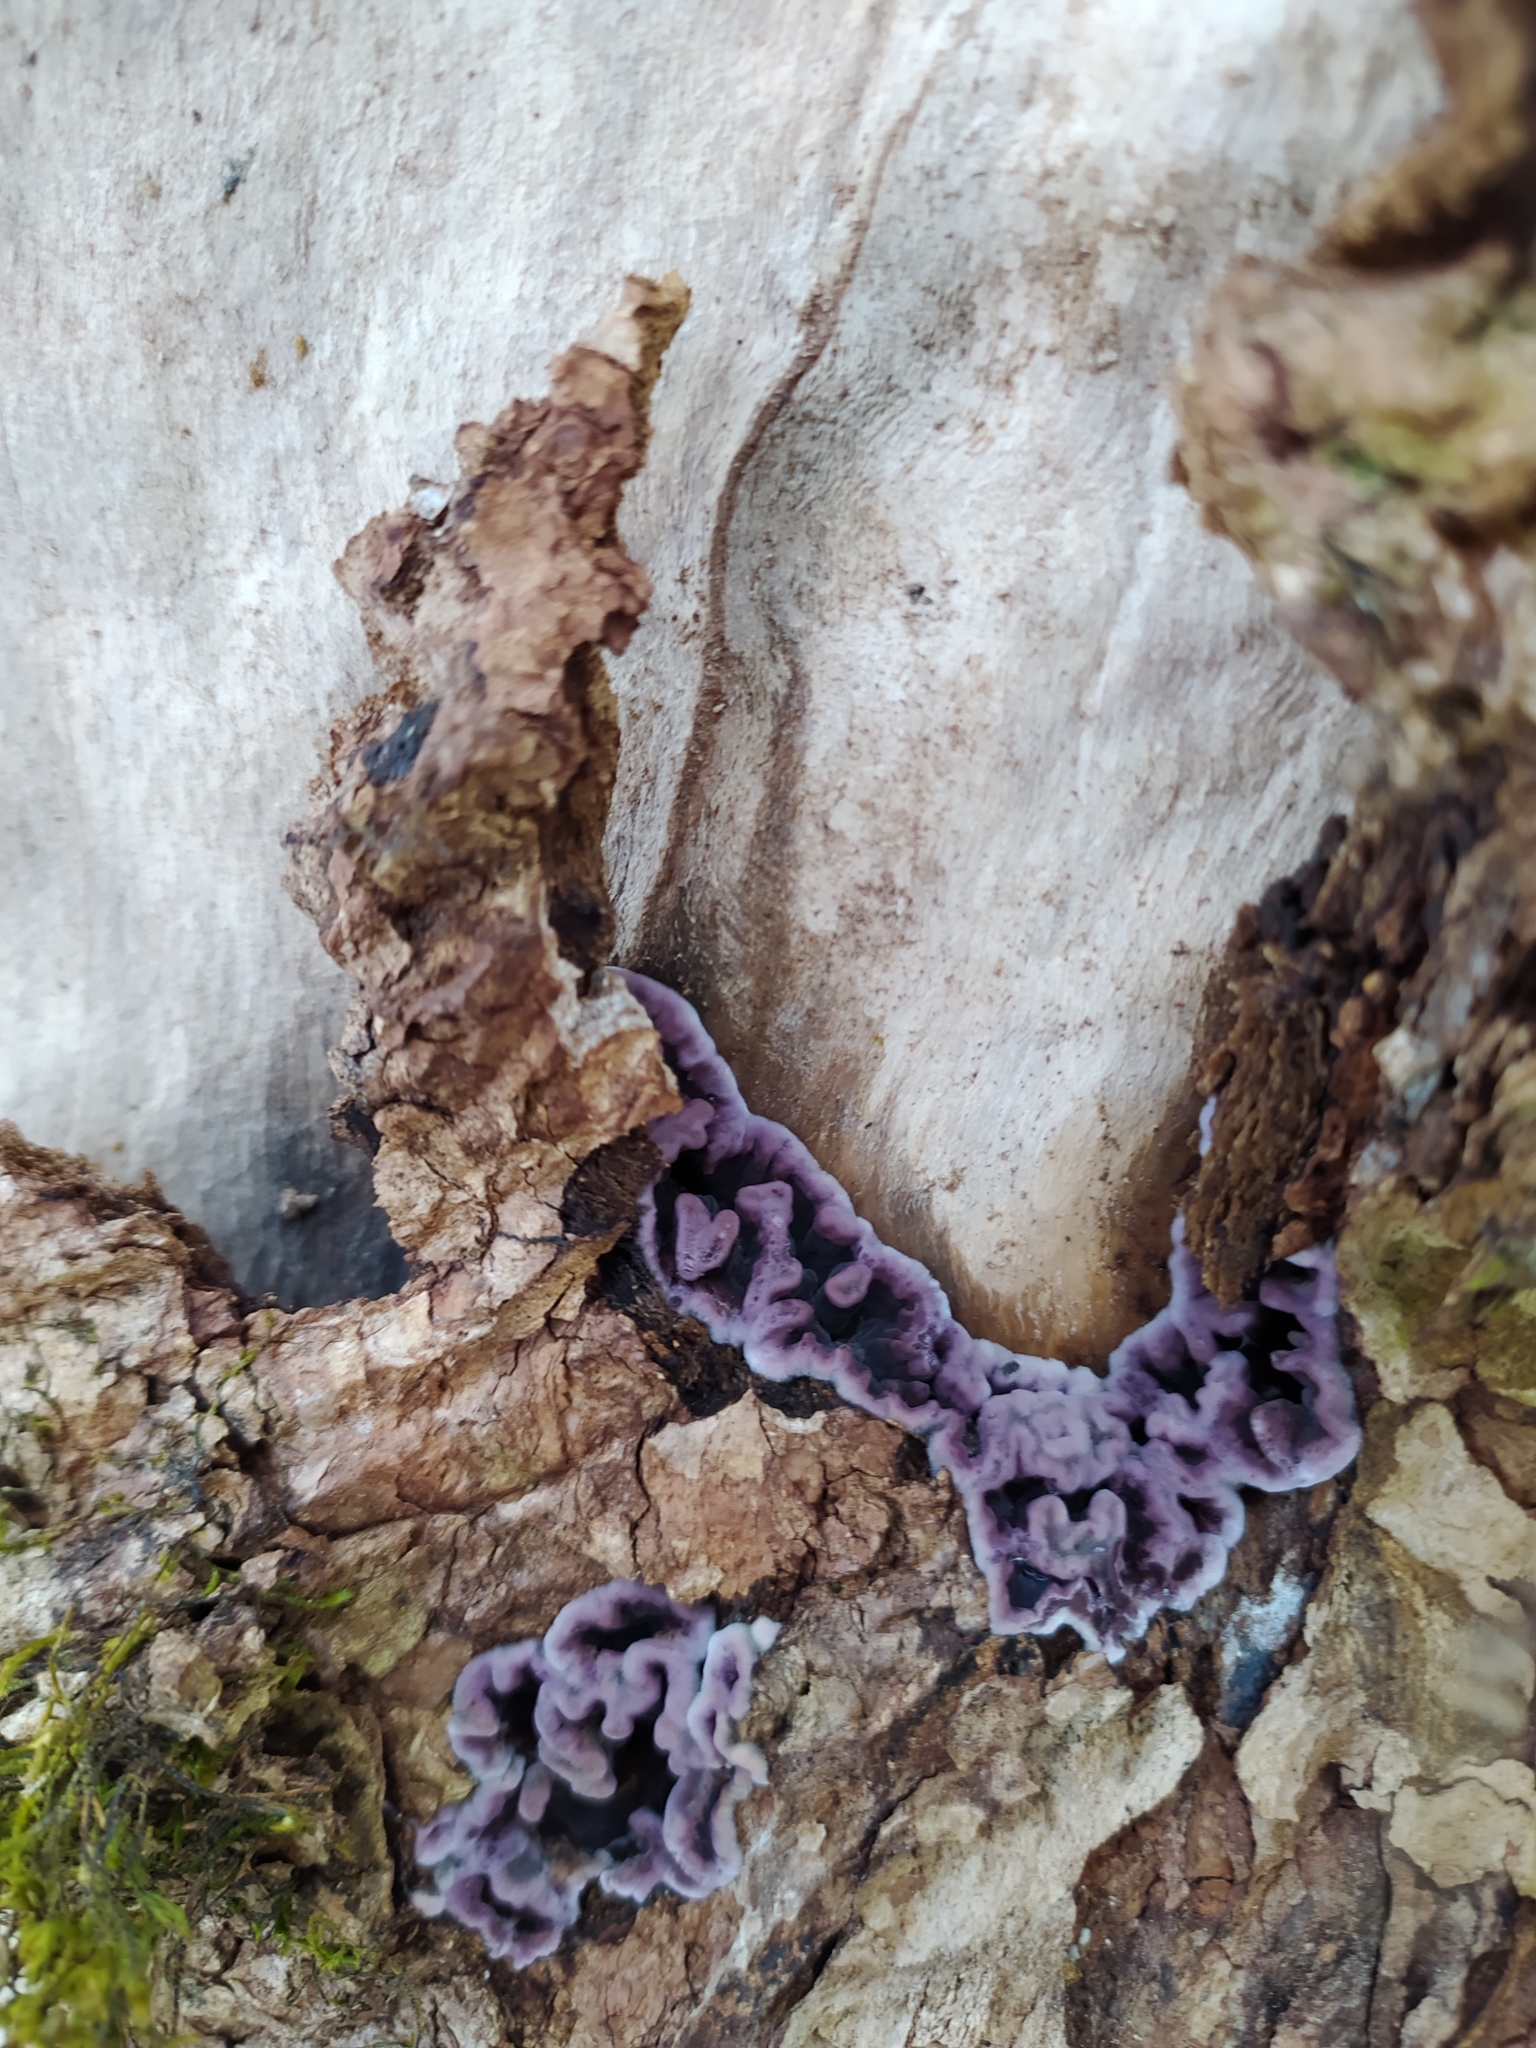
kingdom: Fungi
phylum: Basidiomycota
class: Agaricomycetes
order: Agaricales
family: Cyphellaceae
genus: Chondrostereum
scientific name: Chondrostereum purpureum
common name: Silver leaf disease
